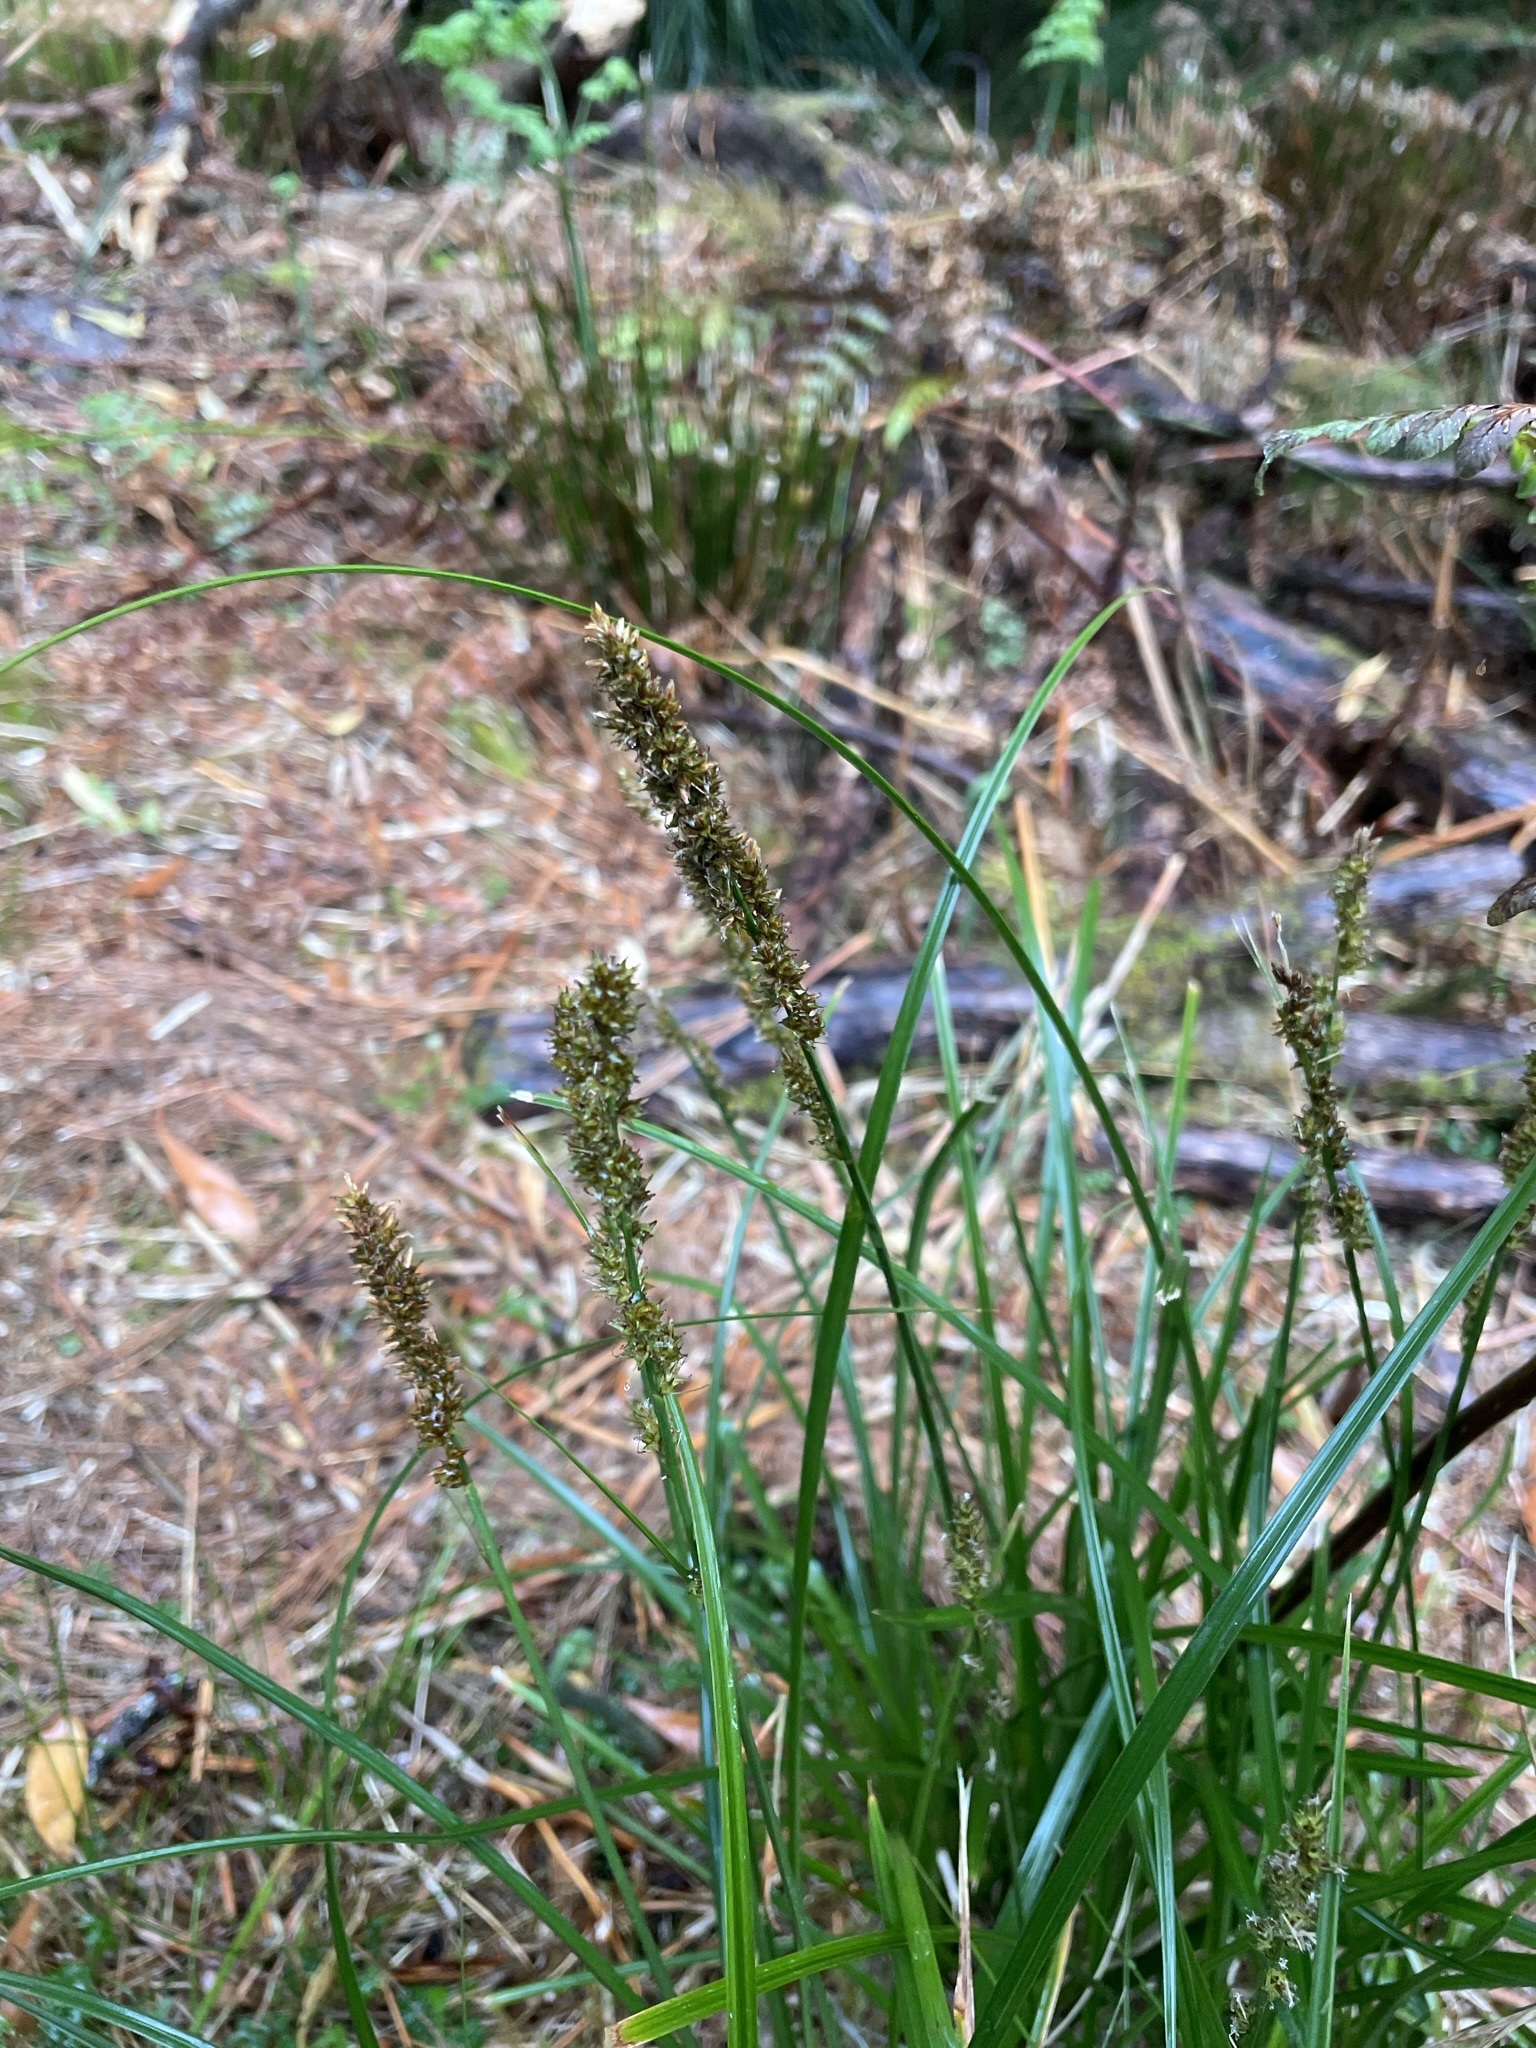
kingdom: Plantae
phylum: Tracheophyta
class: Liliopsida
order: Poales
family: Cyperaceae
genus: Carex
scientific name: Carex appressa
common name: Tussock sedge
